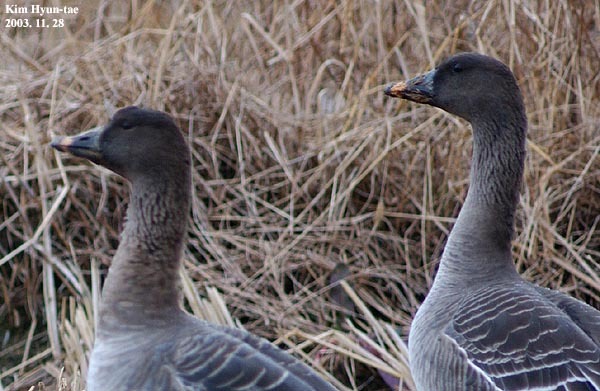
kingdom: Animalia
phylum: Chordata
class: Aves
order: Anseriformes
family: Anatidae
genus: Anser
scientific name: Anser fabalis
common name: Bean goose
